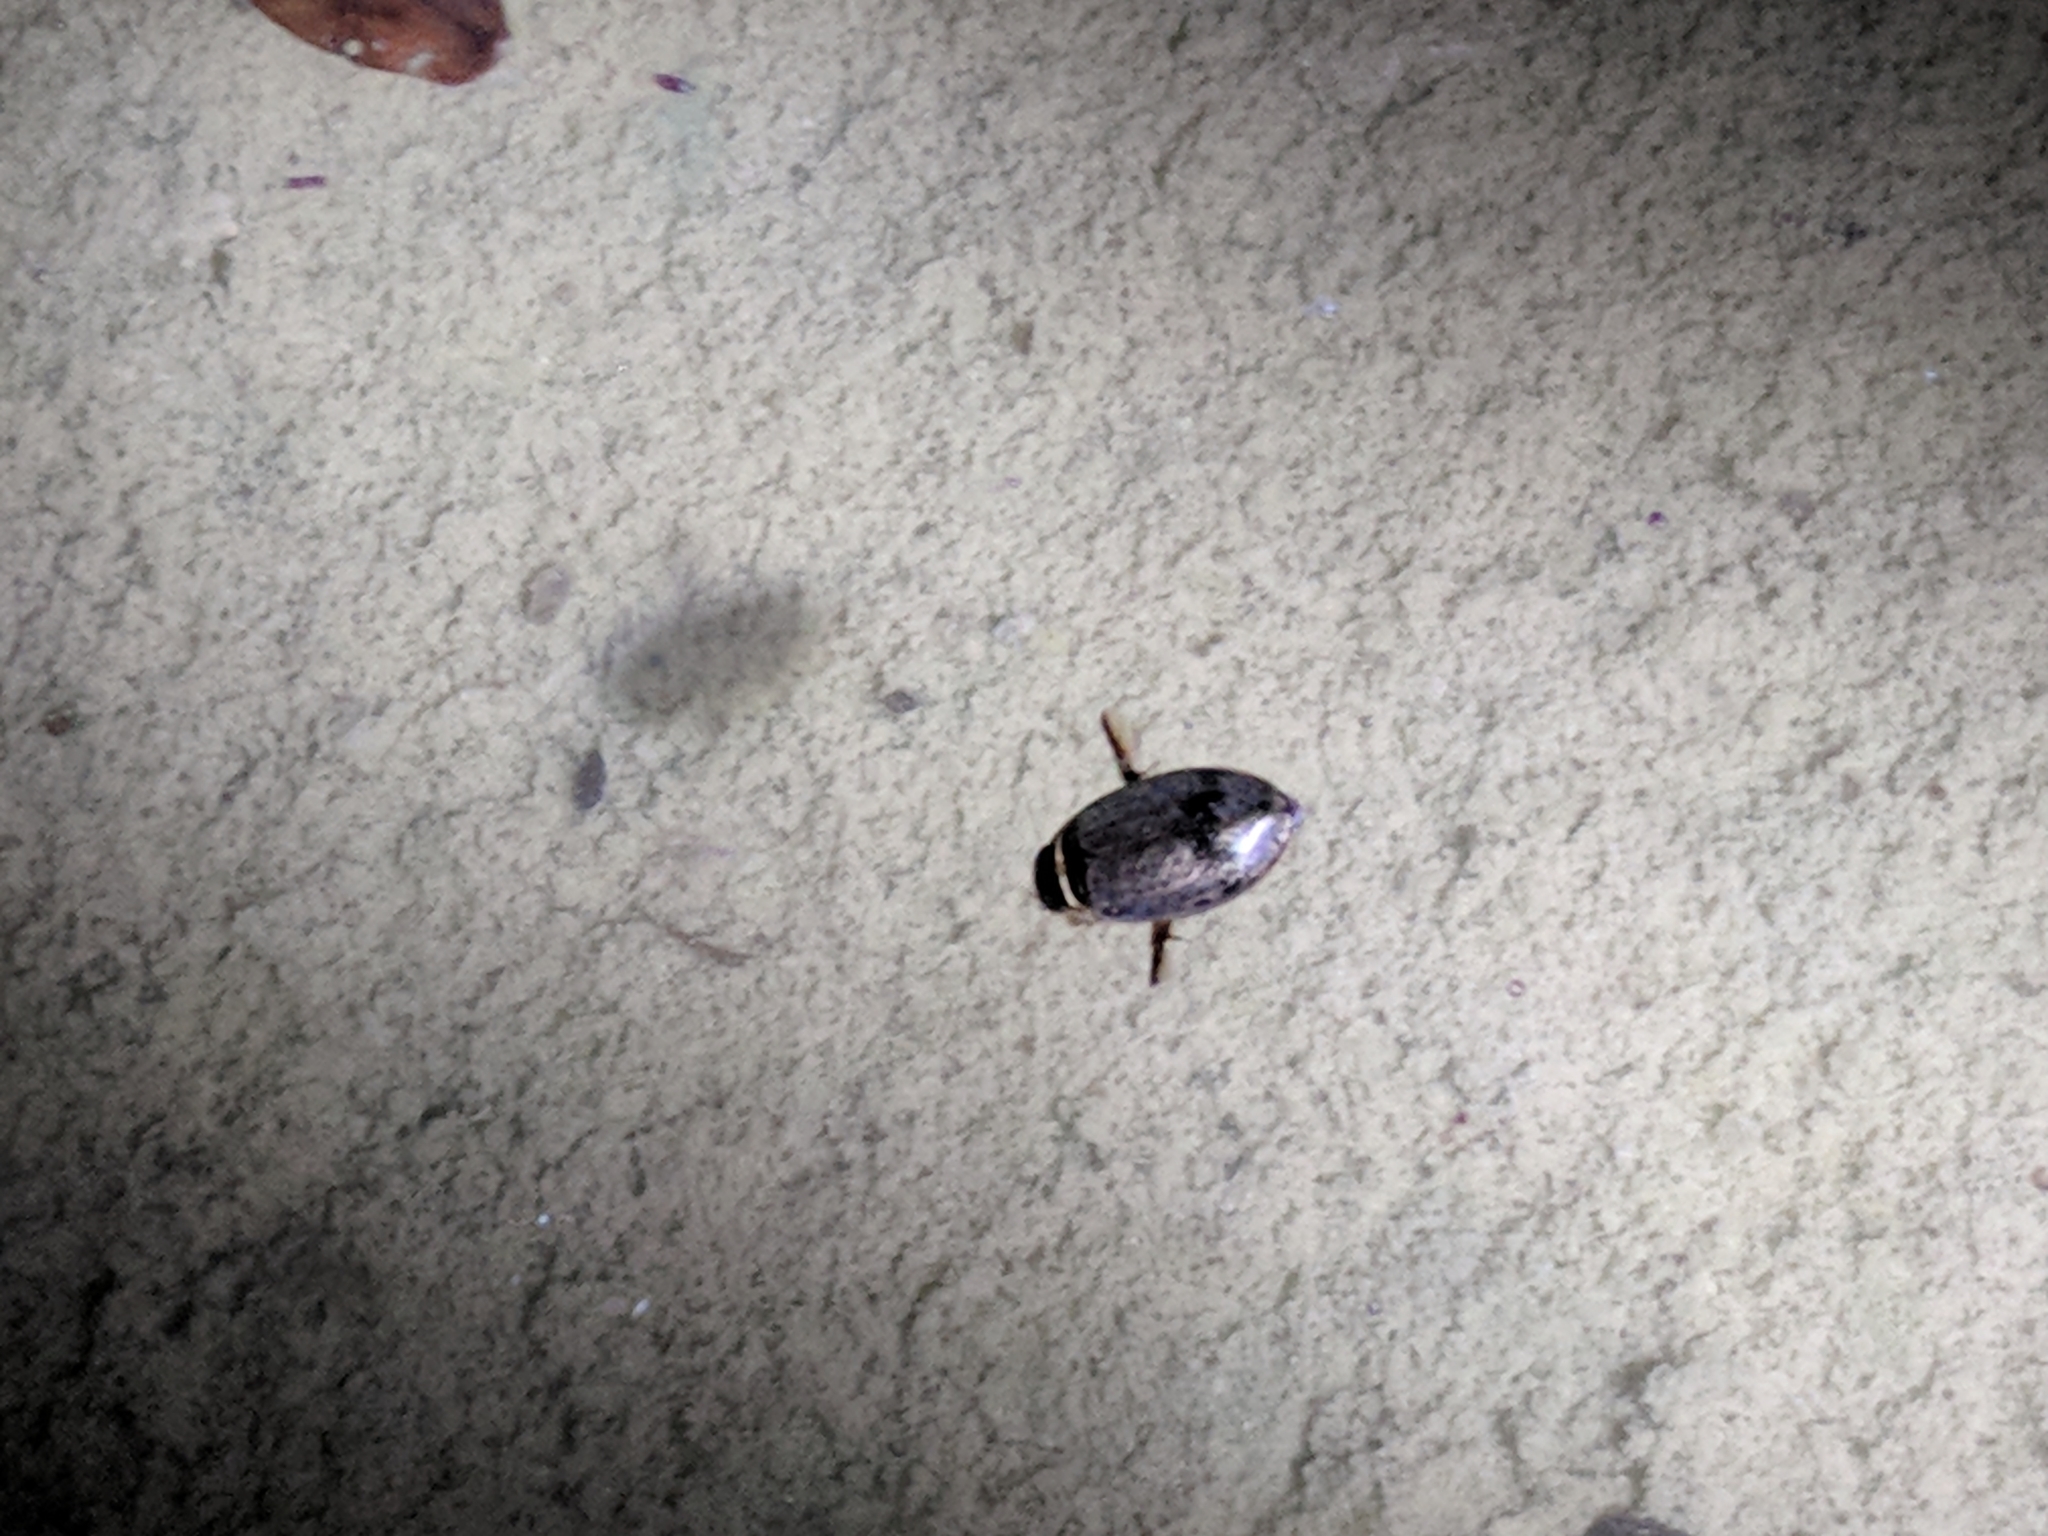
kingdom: Animalia
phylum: Arthropoda
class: Insecta
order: Coleoptera
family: Dytiscidae
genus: Thermonectus
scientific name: Thermonectus nigrofasciatus
